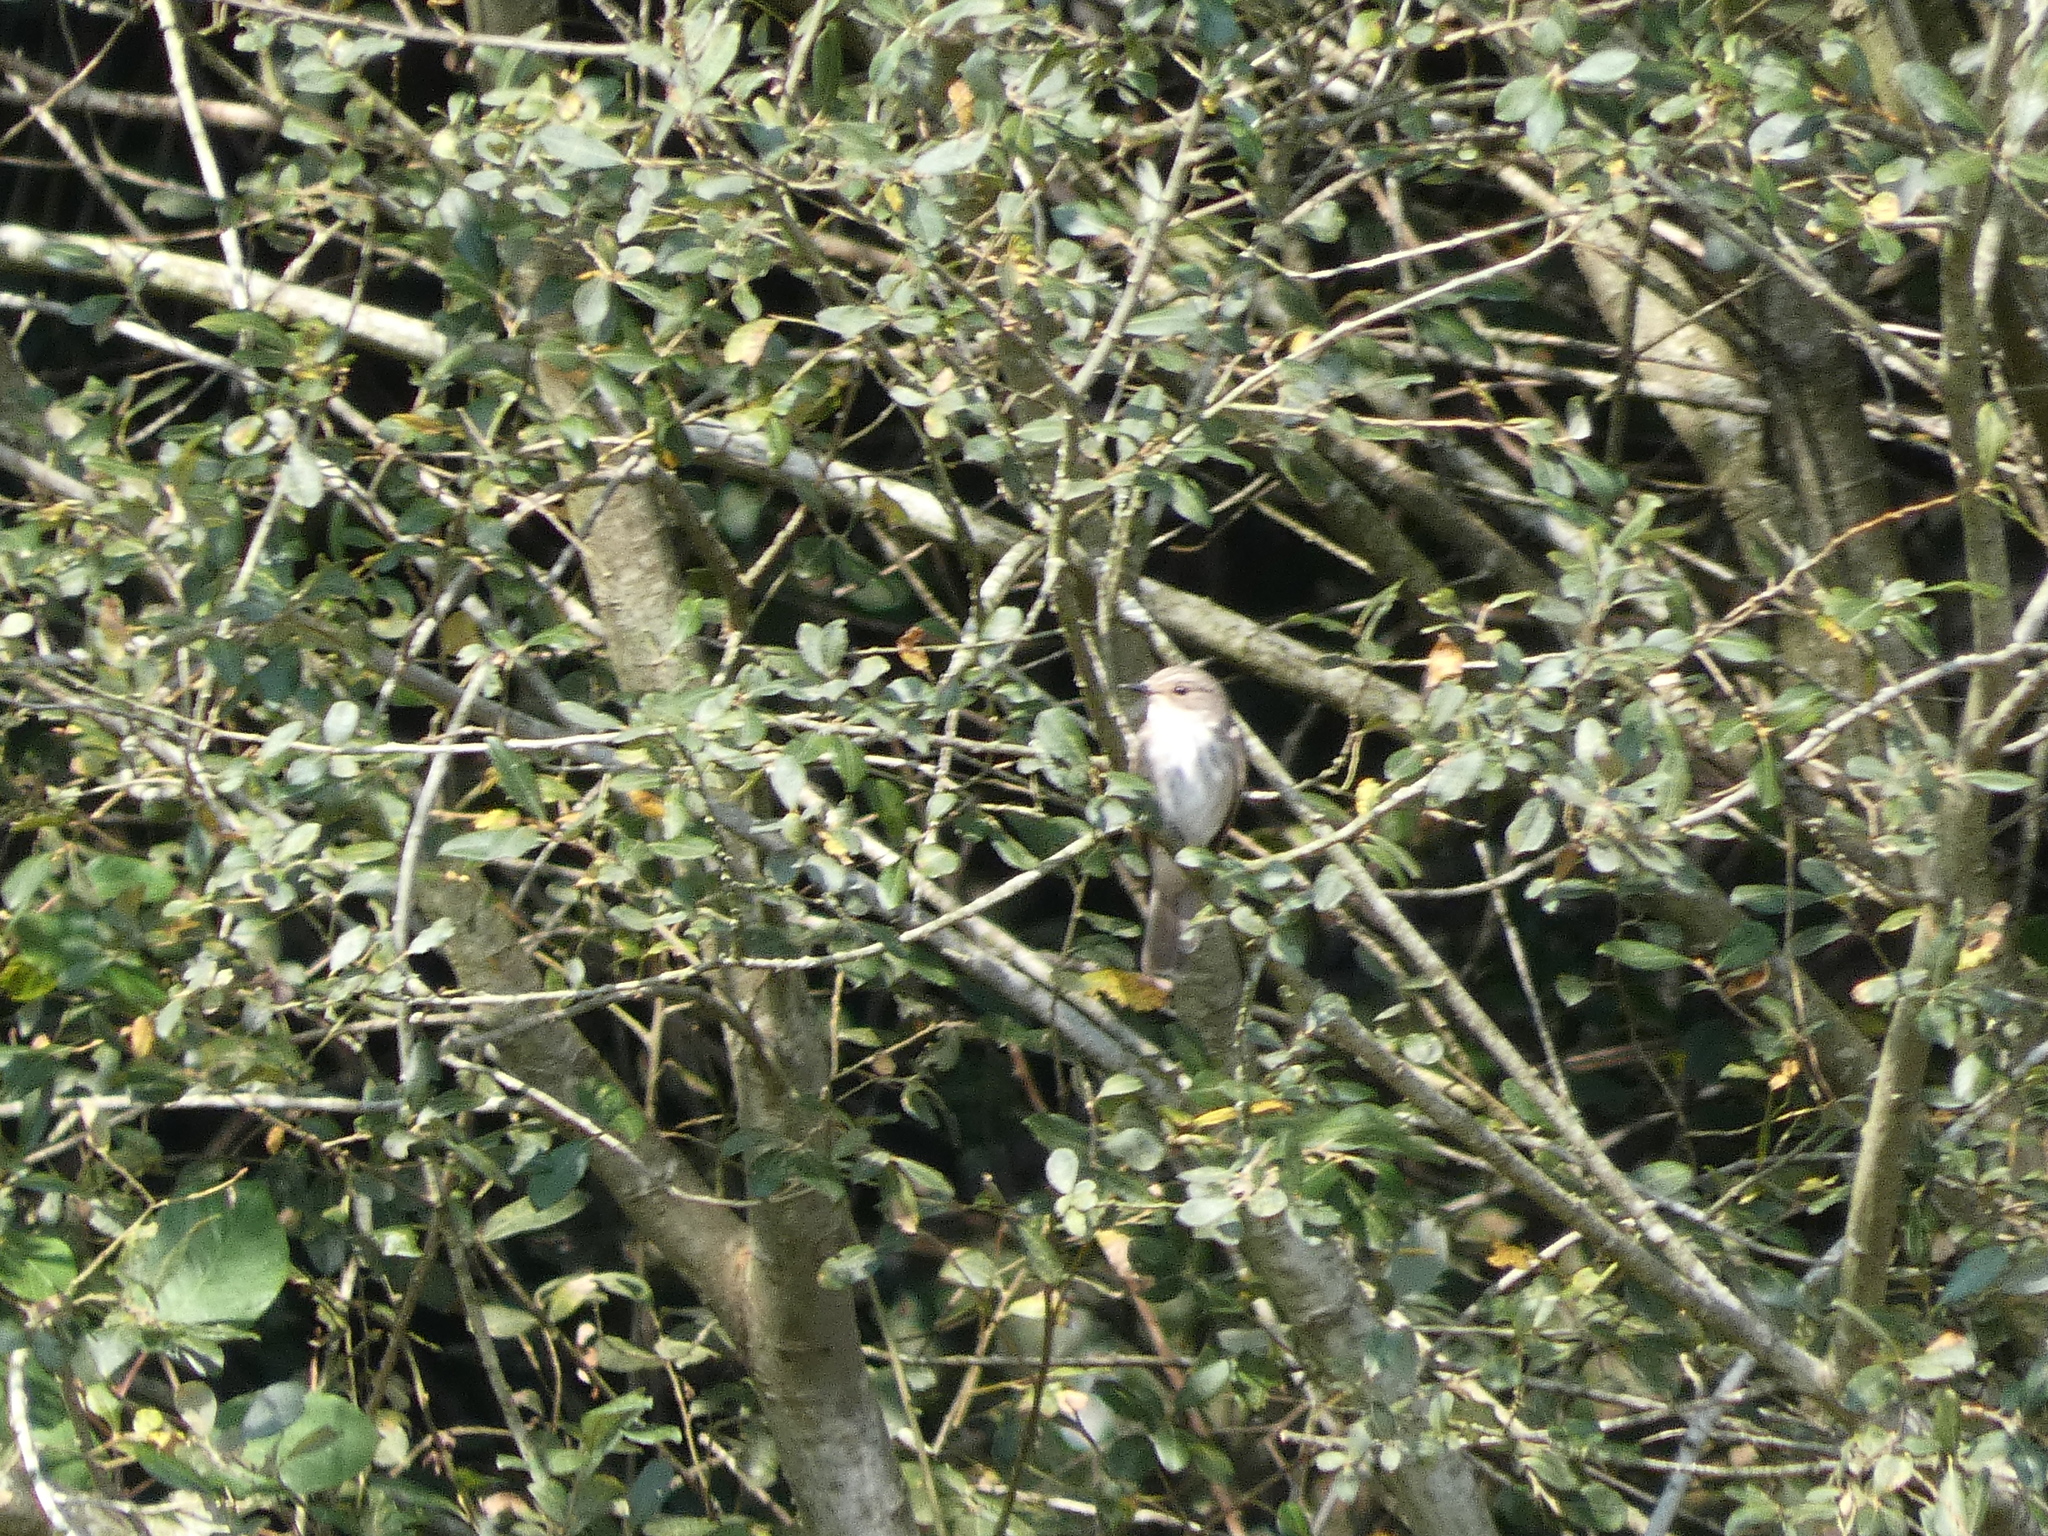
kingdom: Animalia
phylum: Chordata
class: Aves
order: Passeriformes
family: Muscicapidae
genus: Muscicapa
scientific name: Muscicapa striata
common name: Spotted flycatcher
